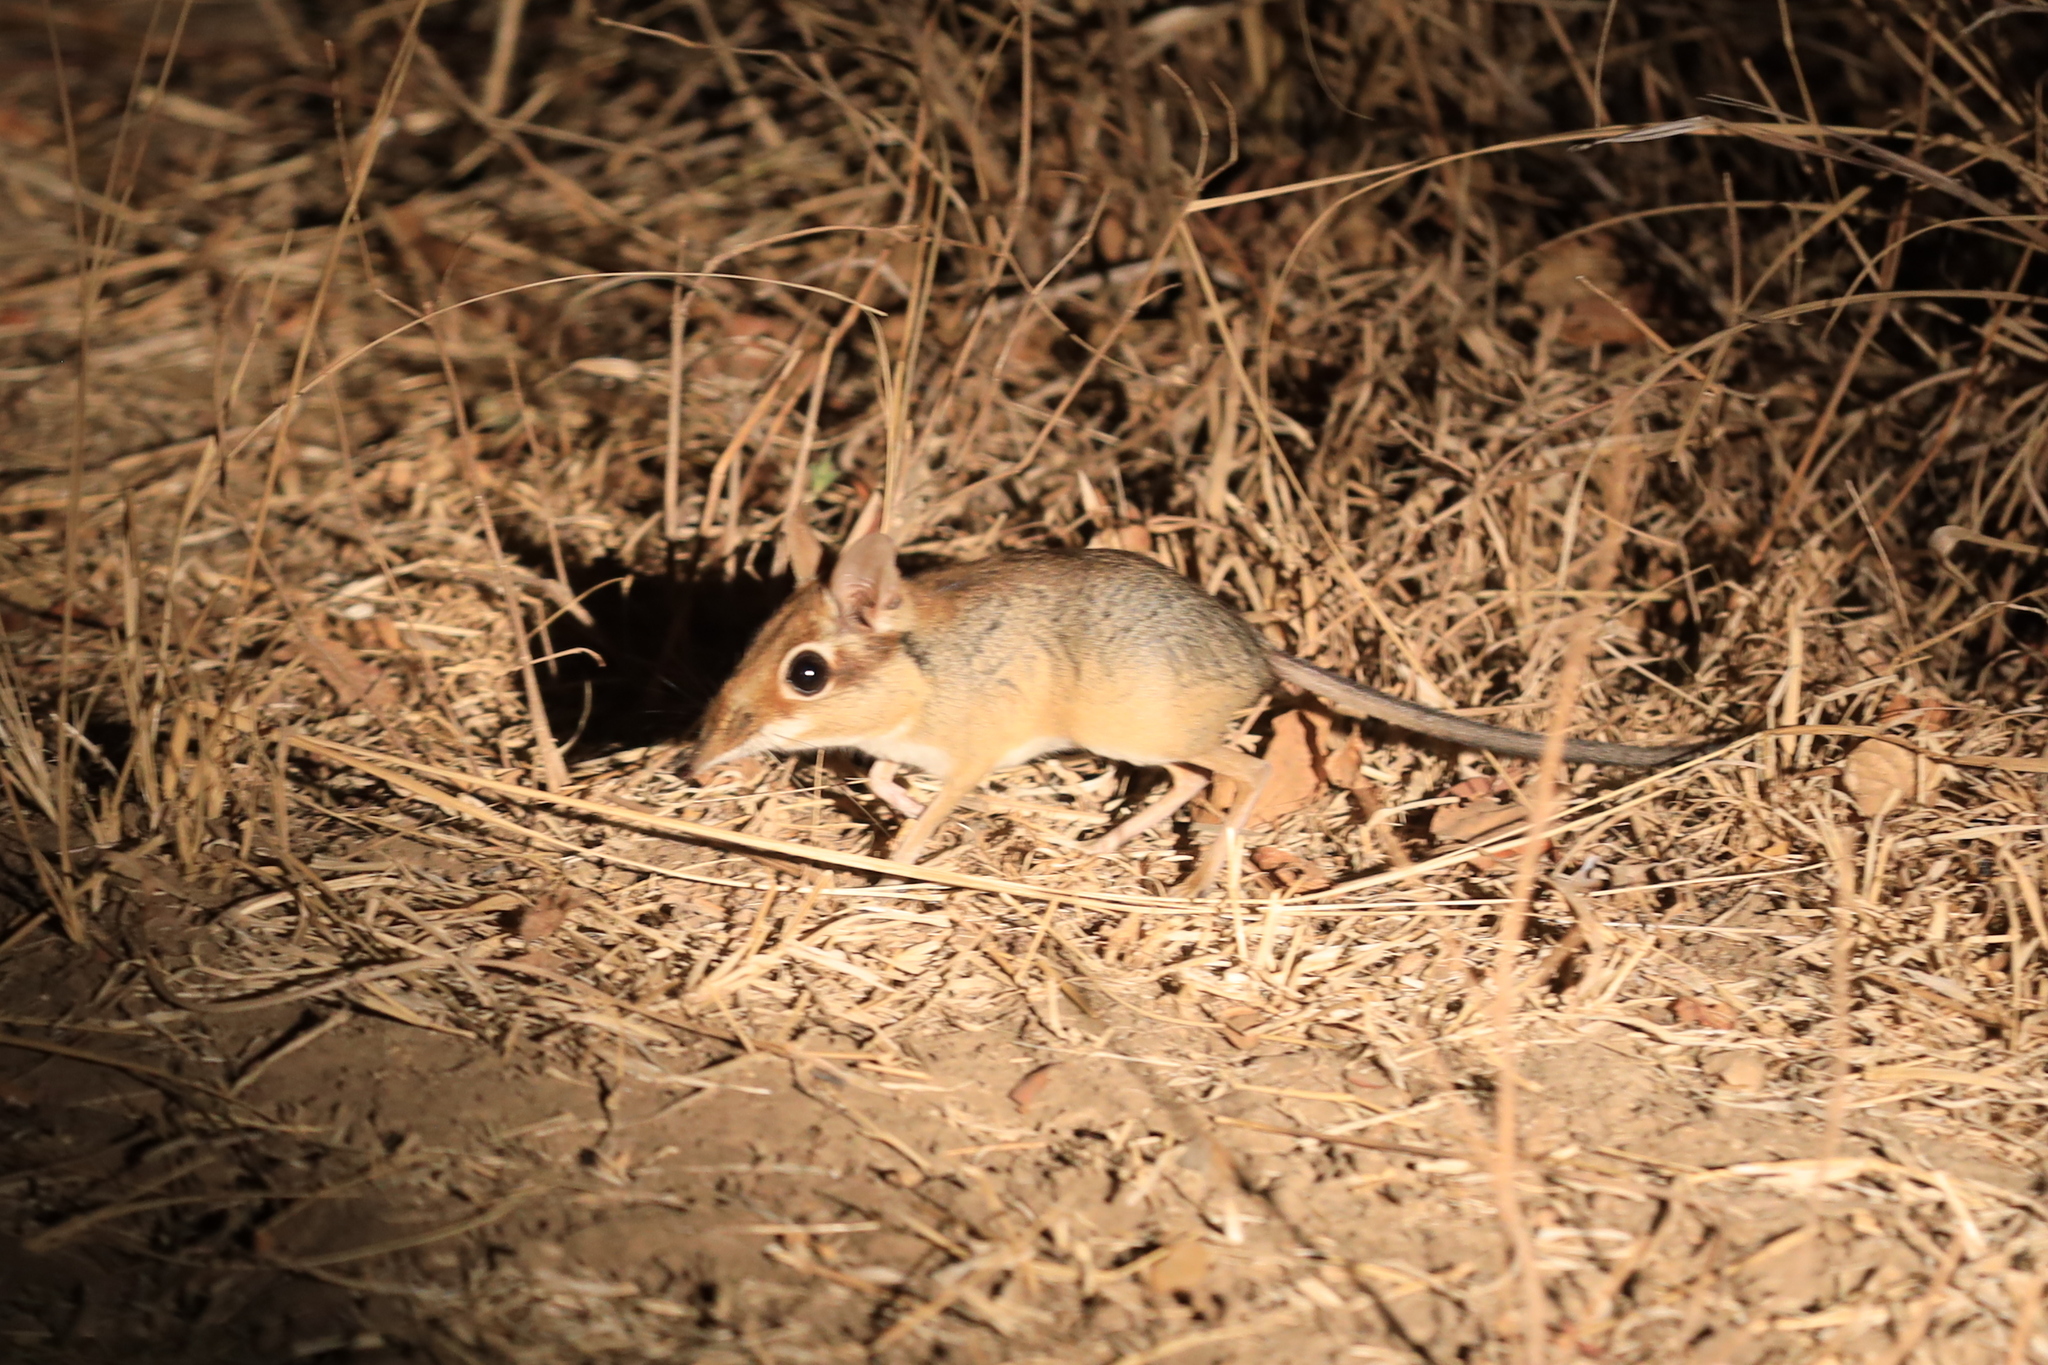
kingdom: Animalia
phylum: Chordata
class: Mammalia
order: Macroscelidea
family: Macroscelididae
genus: Petrodromus
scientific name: Petrodromus tetradactylus
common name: Four-toed elephant shrew
